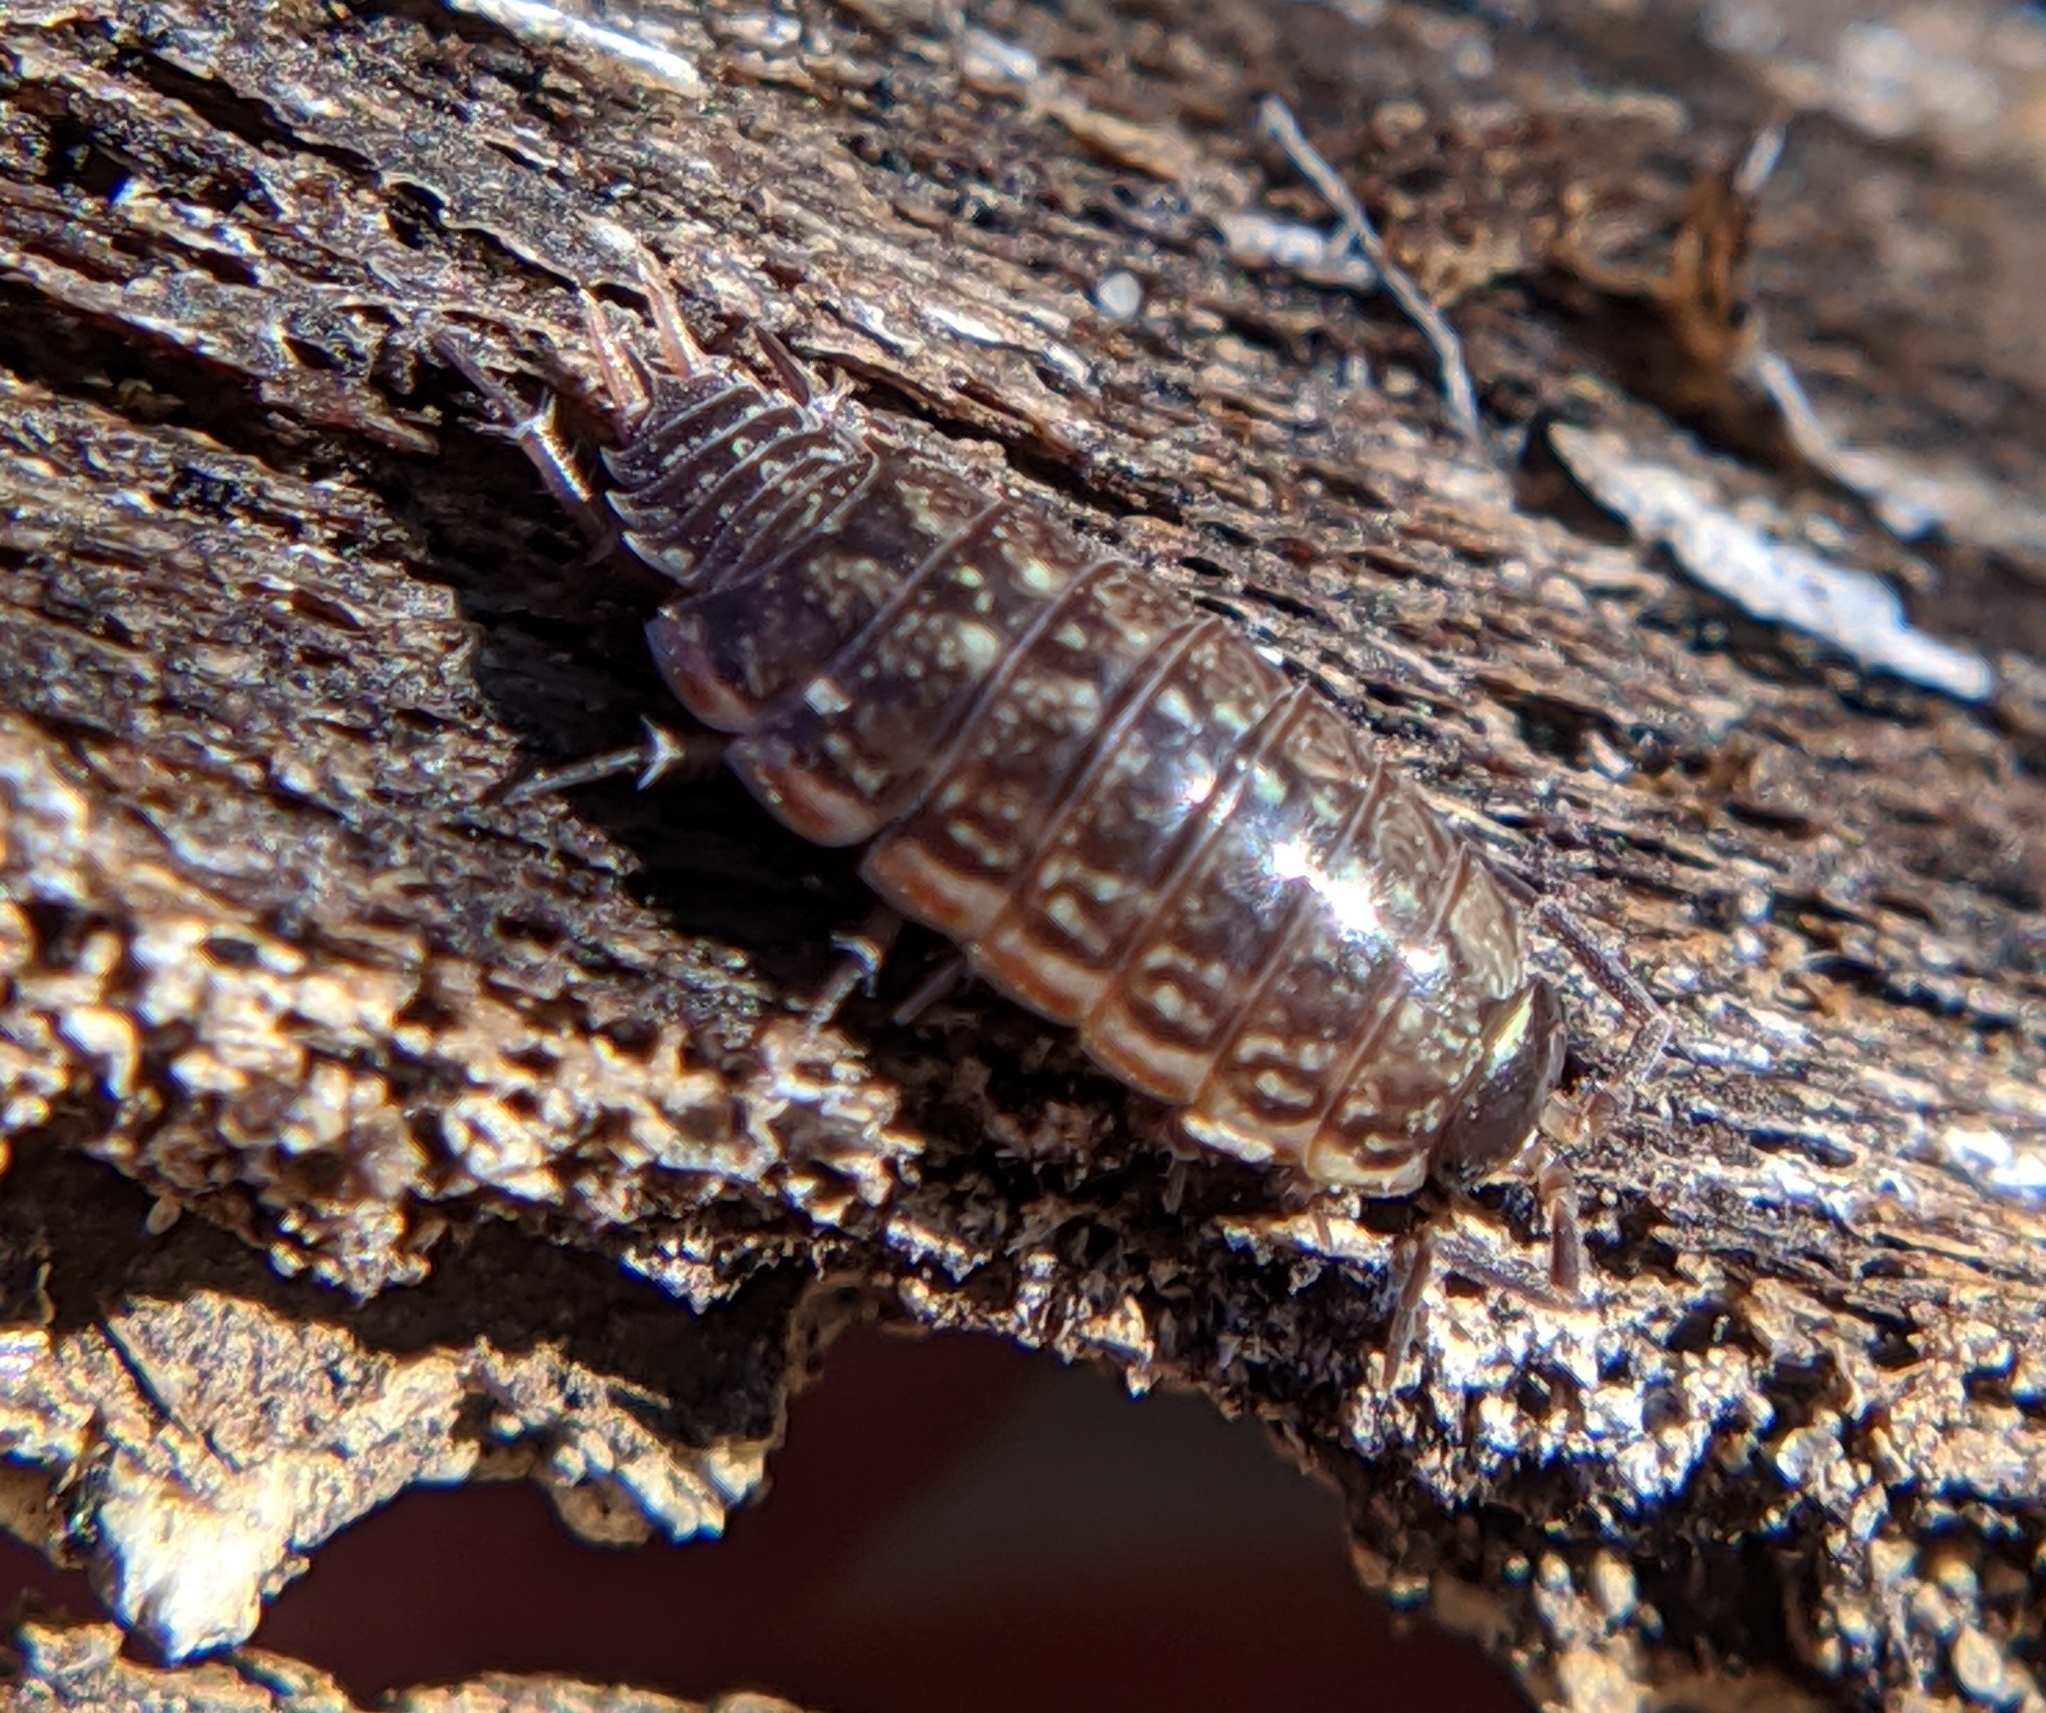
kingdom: Animalia
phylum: Arthropoda
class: Malacostraca
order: Isopoda
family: Philosciidae
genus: Philoscia
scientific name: Philoscia muscorum
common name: Common striped woodlouse
